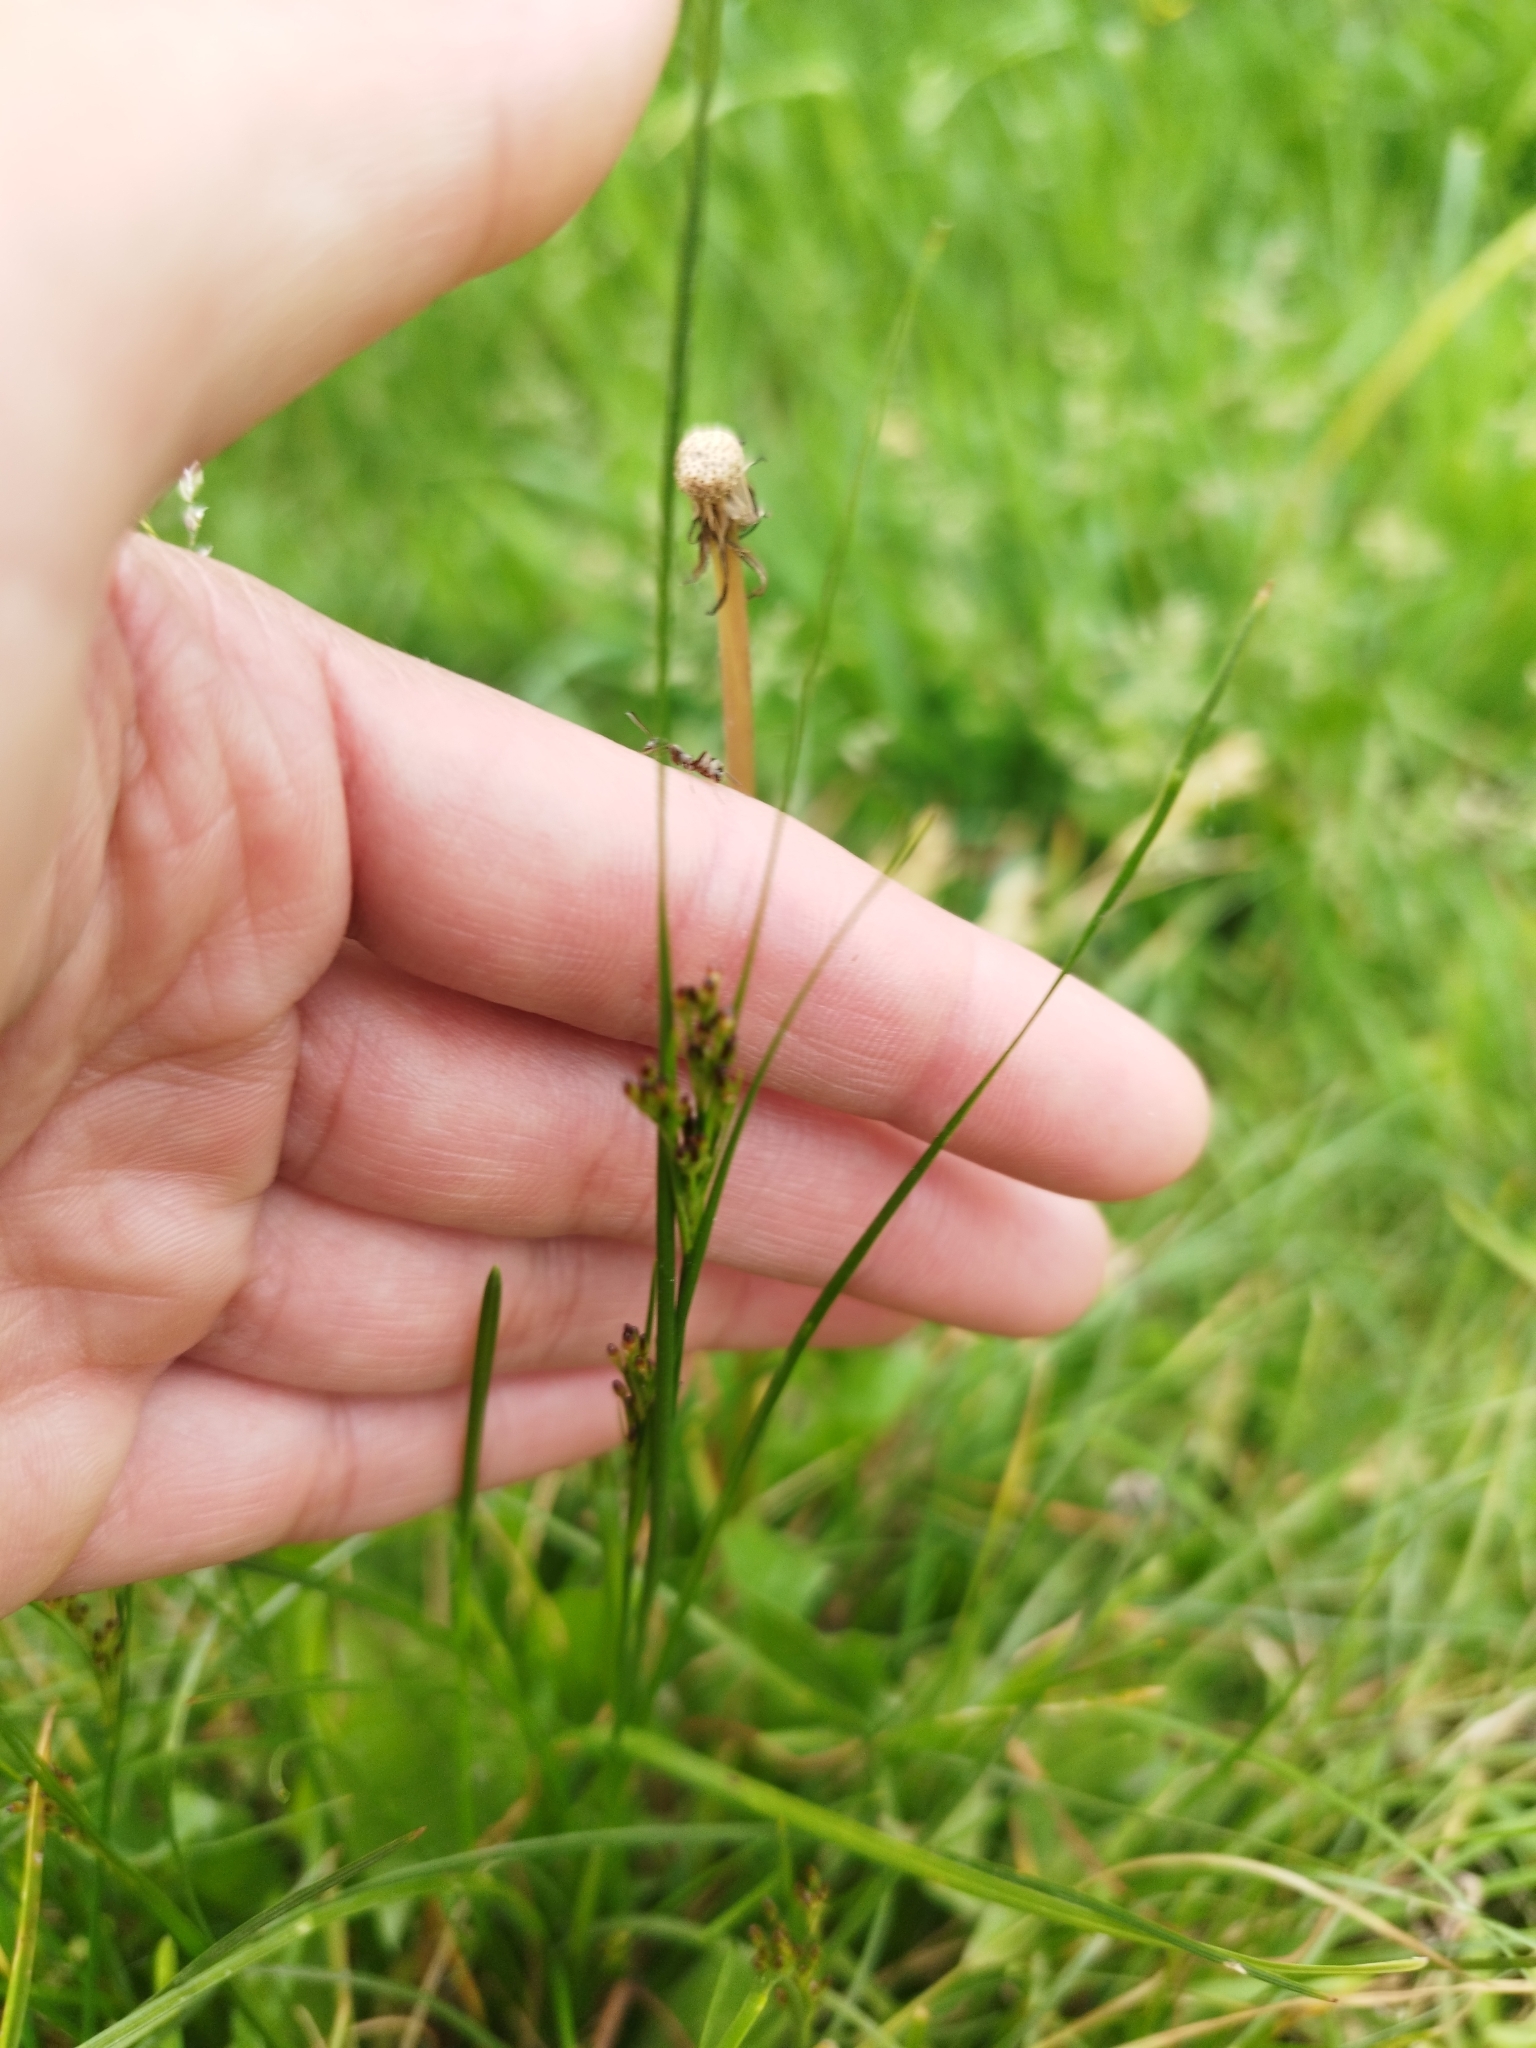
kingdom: Plantae
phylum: Tracheophyta
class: Liliopsida
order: Poales
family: Juncaceae
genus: Juncus
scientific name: Juncus compressus
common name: Round-fruited rush
